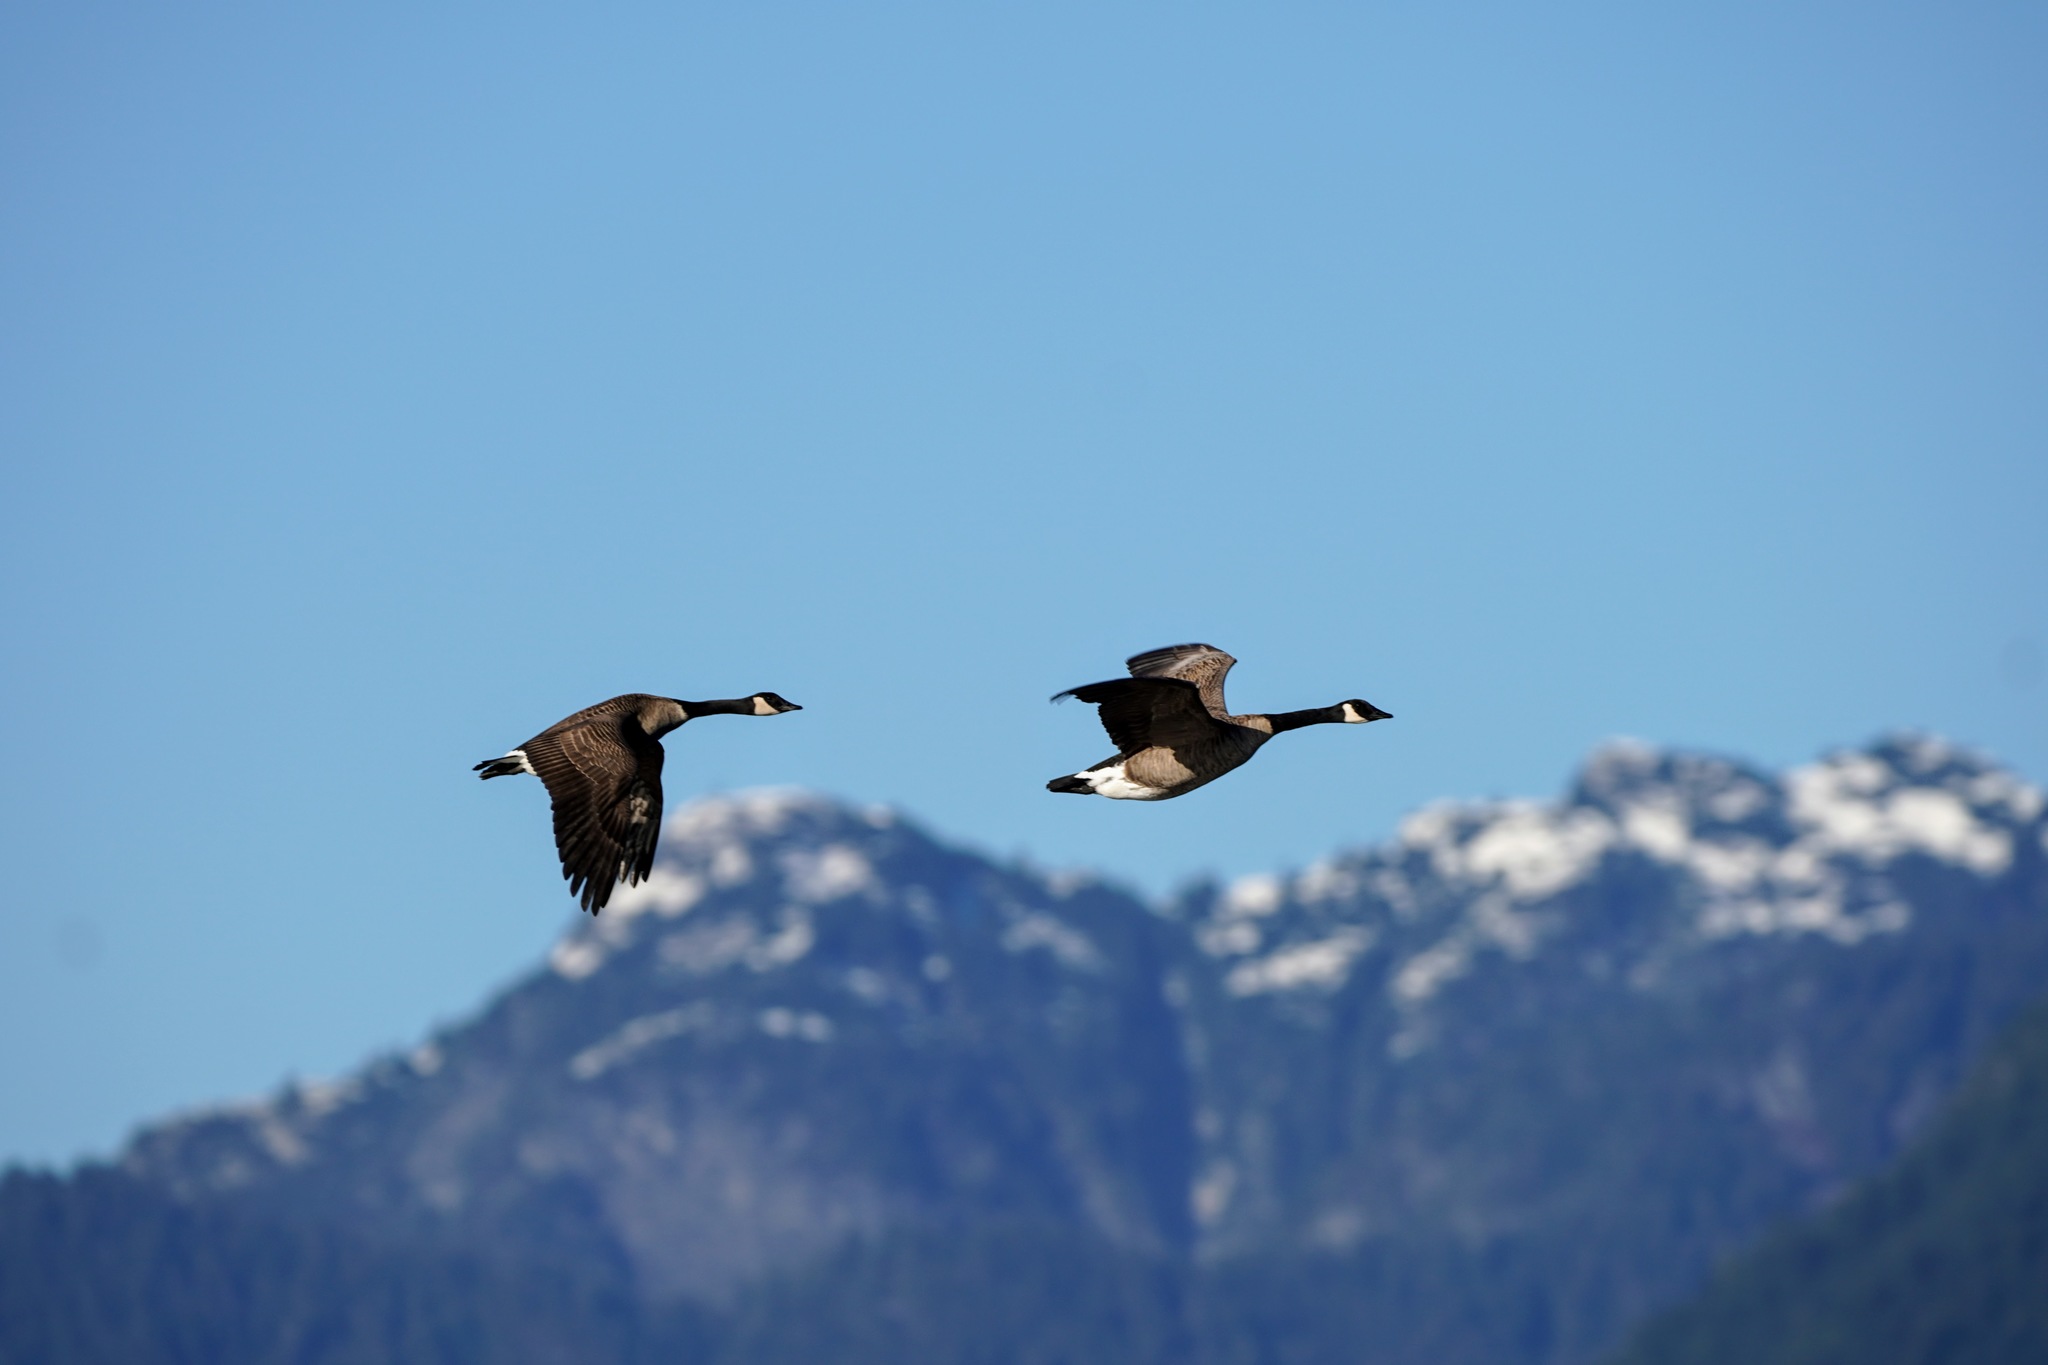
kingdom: Animalia
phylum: Chordata
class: Aves
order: Anseriformes
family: Anatidae
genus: Branta
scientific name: Branta canadensis
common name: Canada goose
